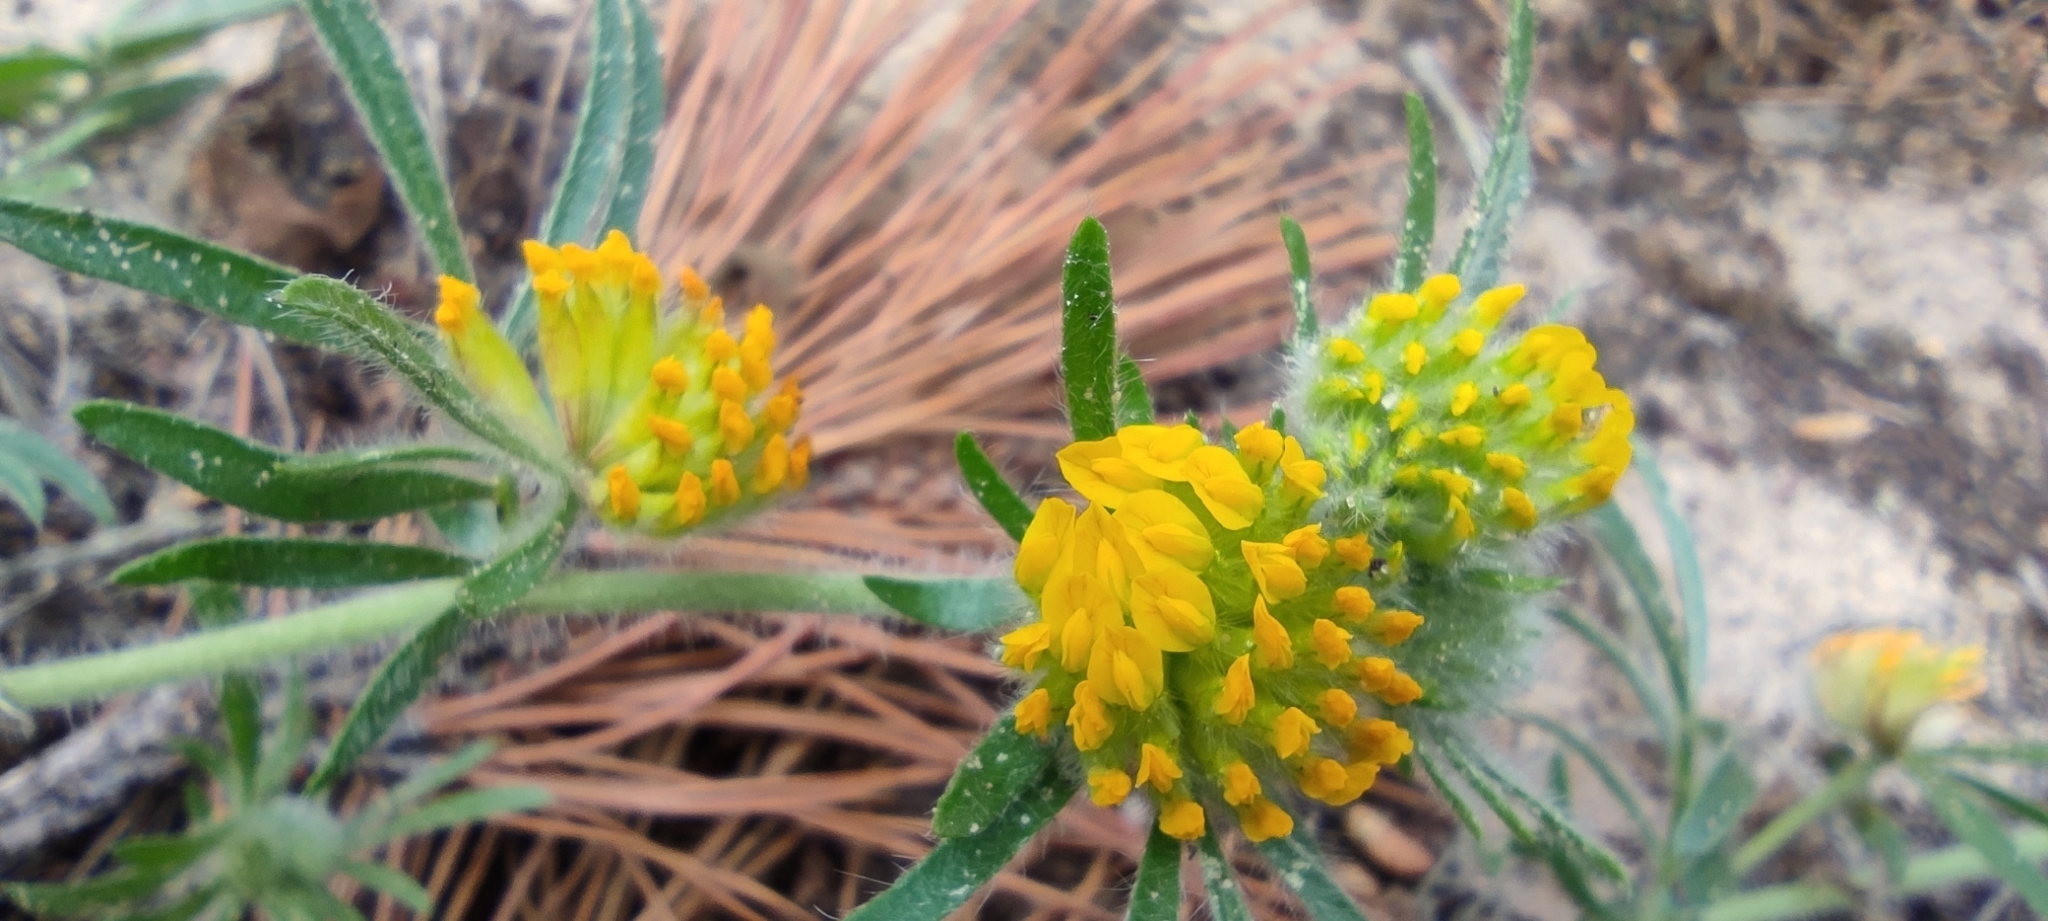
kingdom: Plantae
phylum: Tracheophyta
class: Magnoliopsida
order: Fabales
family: Fabaceae
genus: Anthyllis
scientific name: Anthyllis hamosa
